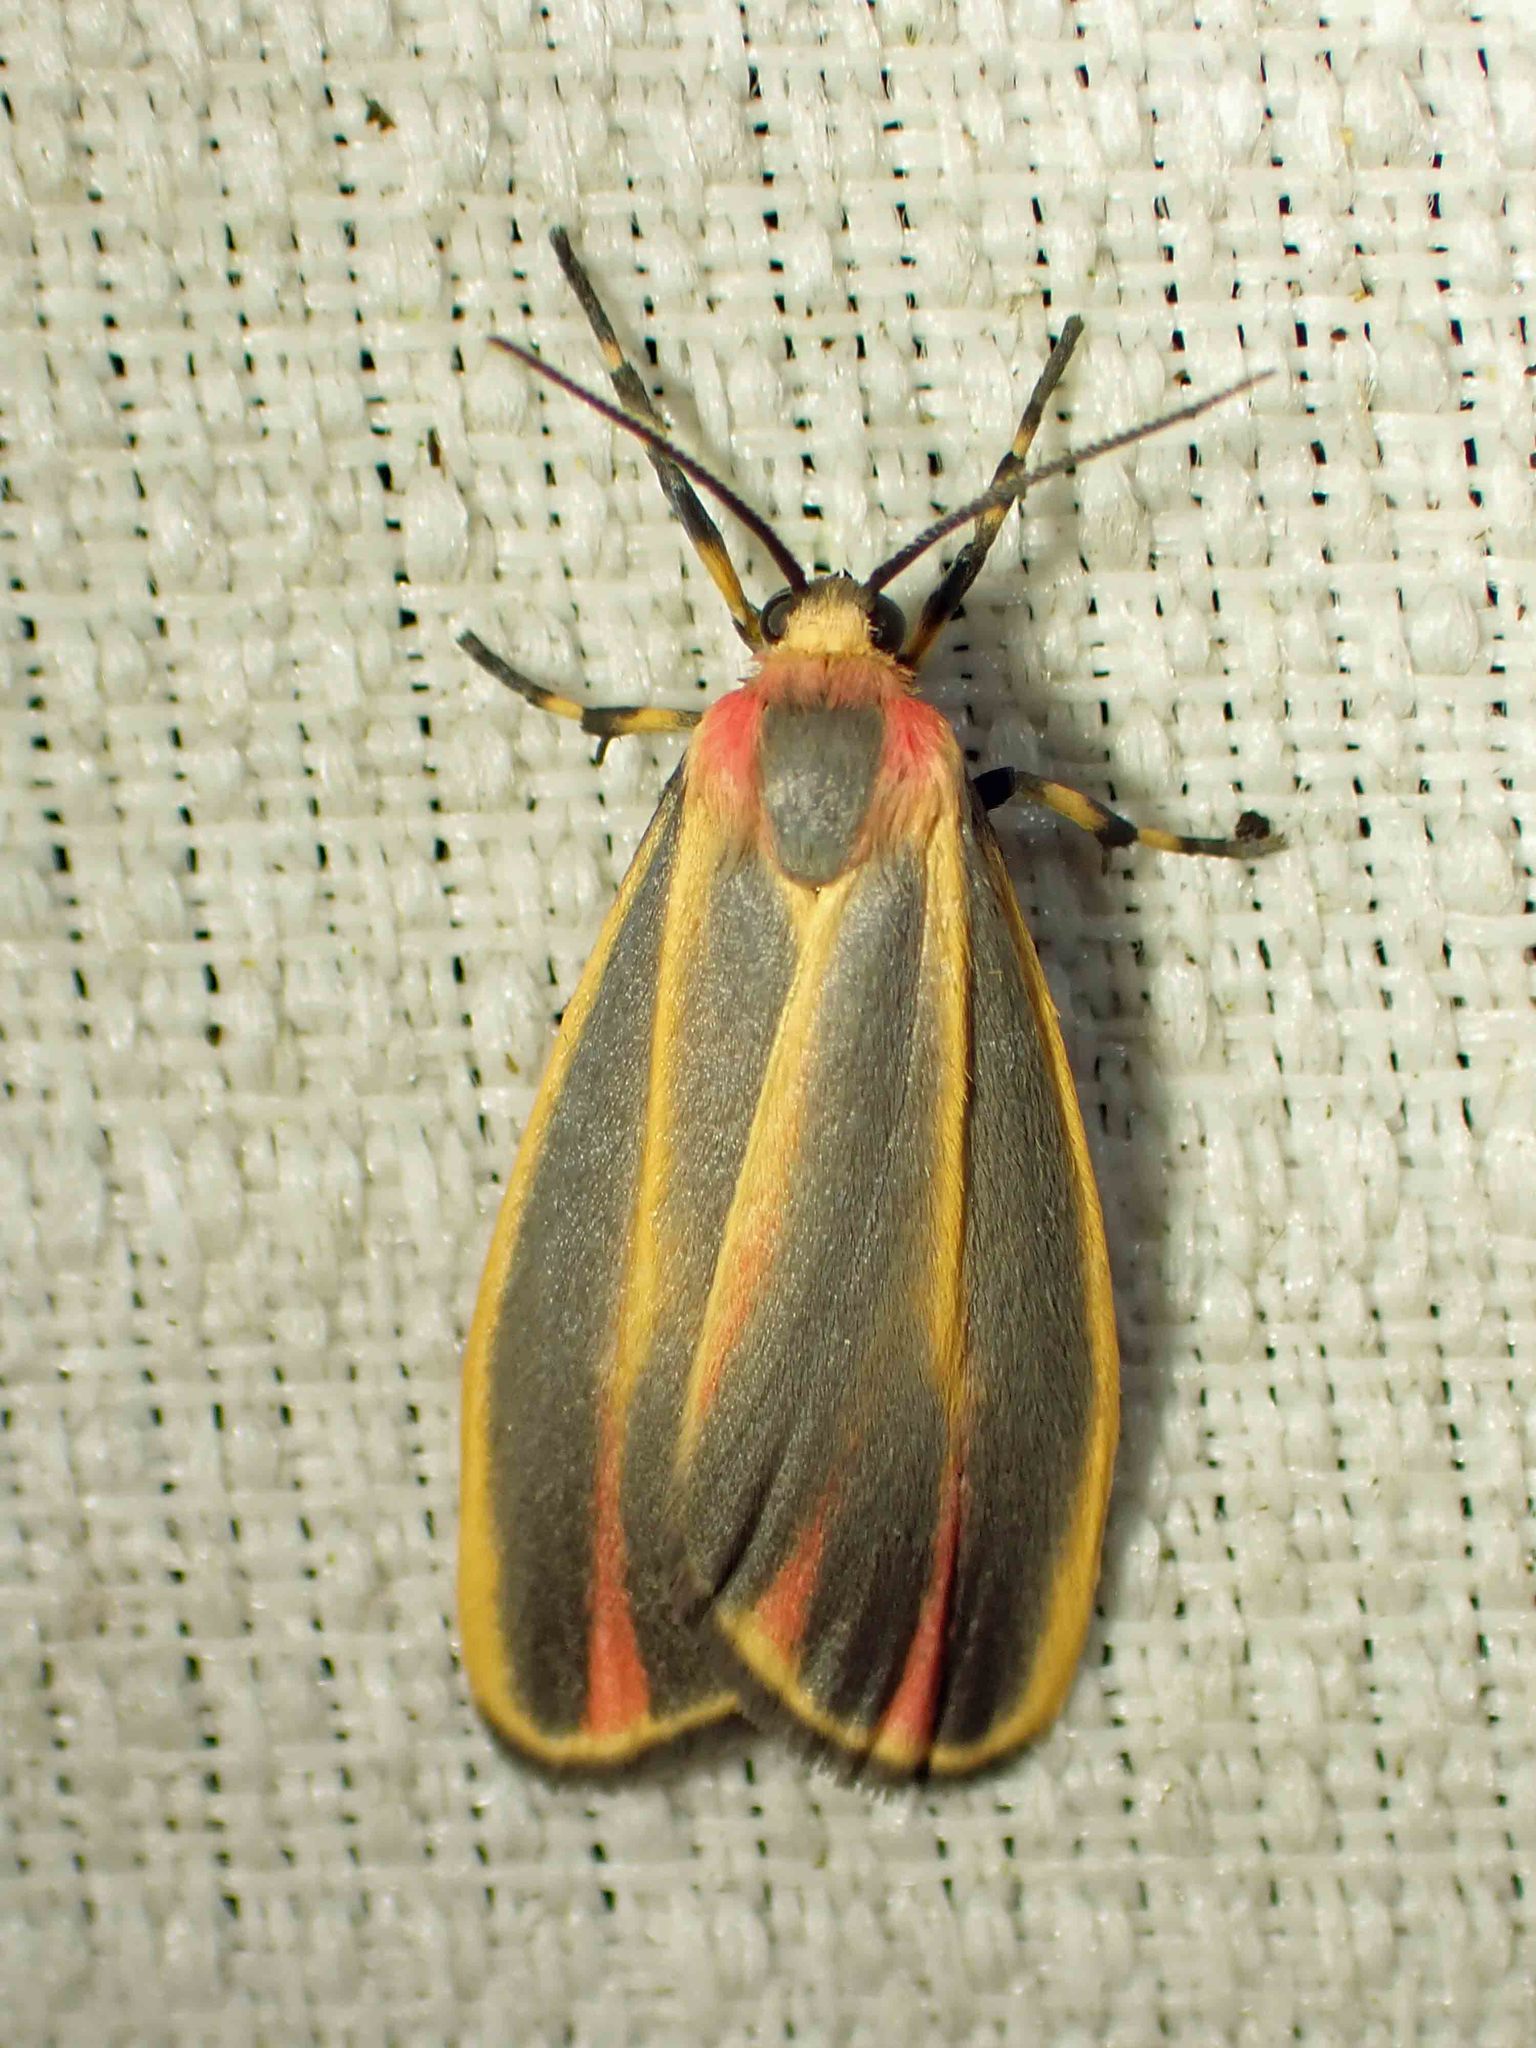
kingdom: Animalia
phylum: Arthropoda
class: Insecta
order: Lepidoptera
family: Erebidae
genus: Hypoprepia
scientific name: Hypoprepia fucosa
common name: Painted lichen moth
